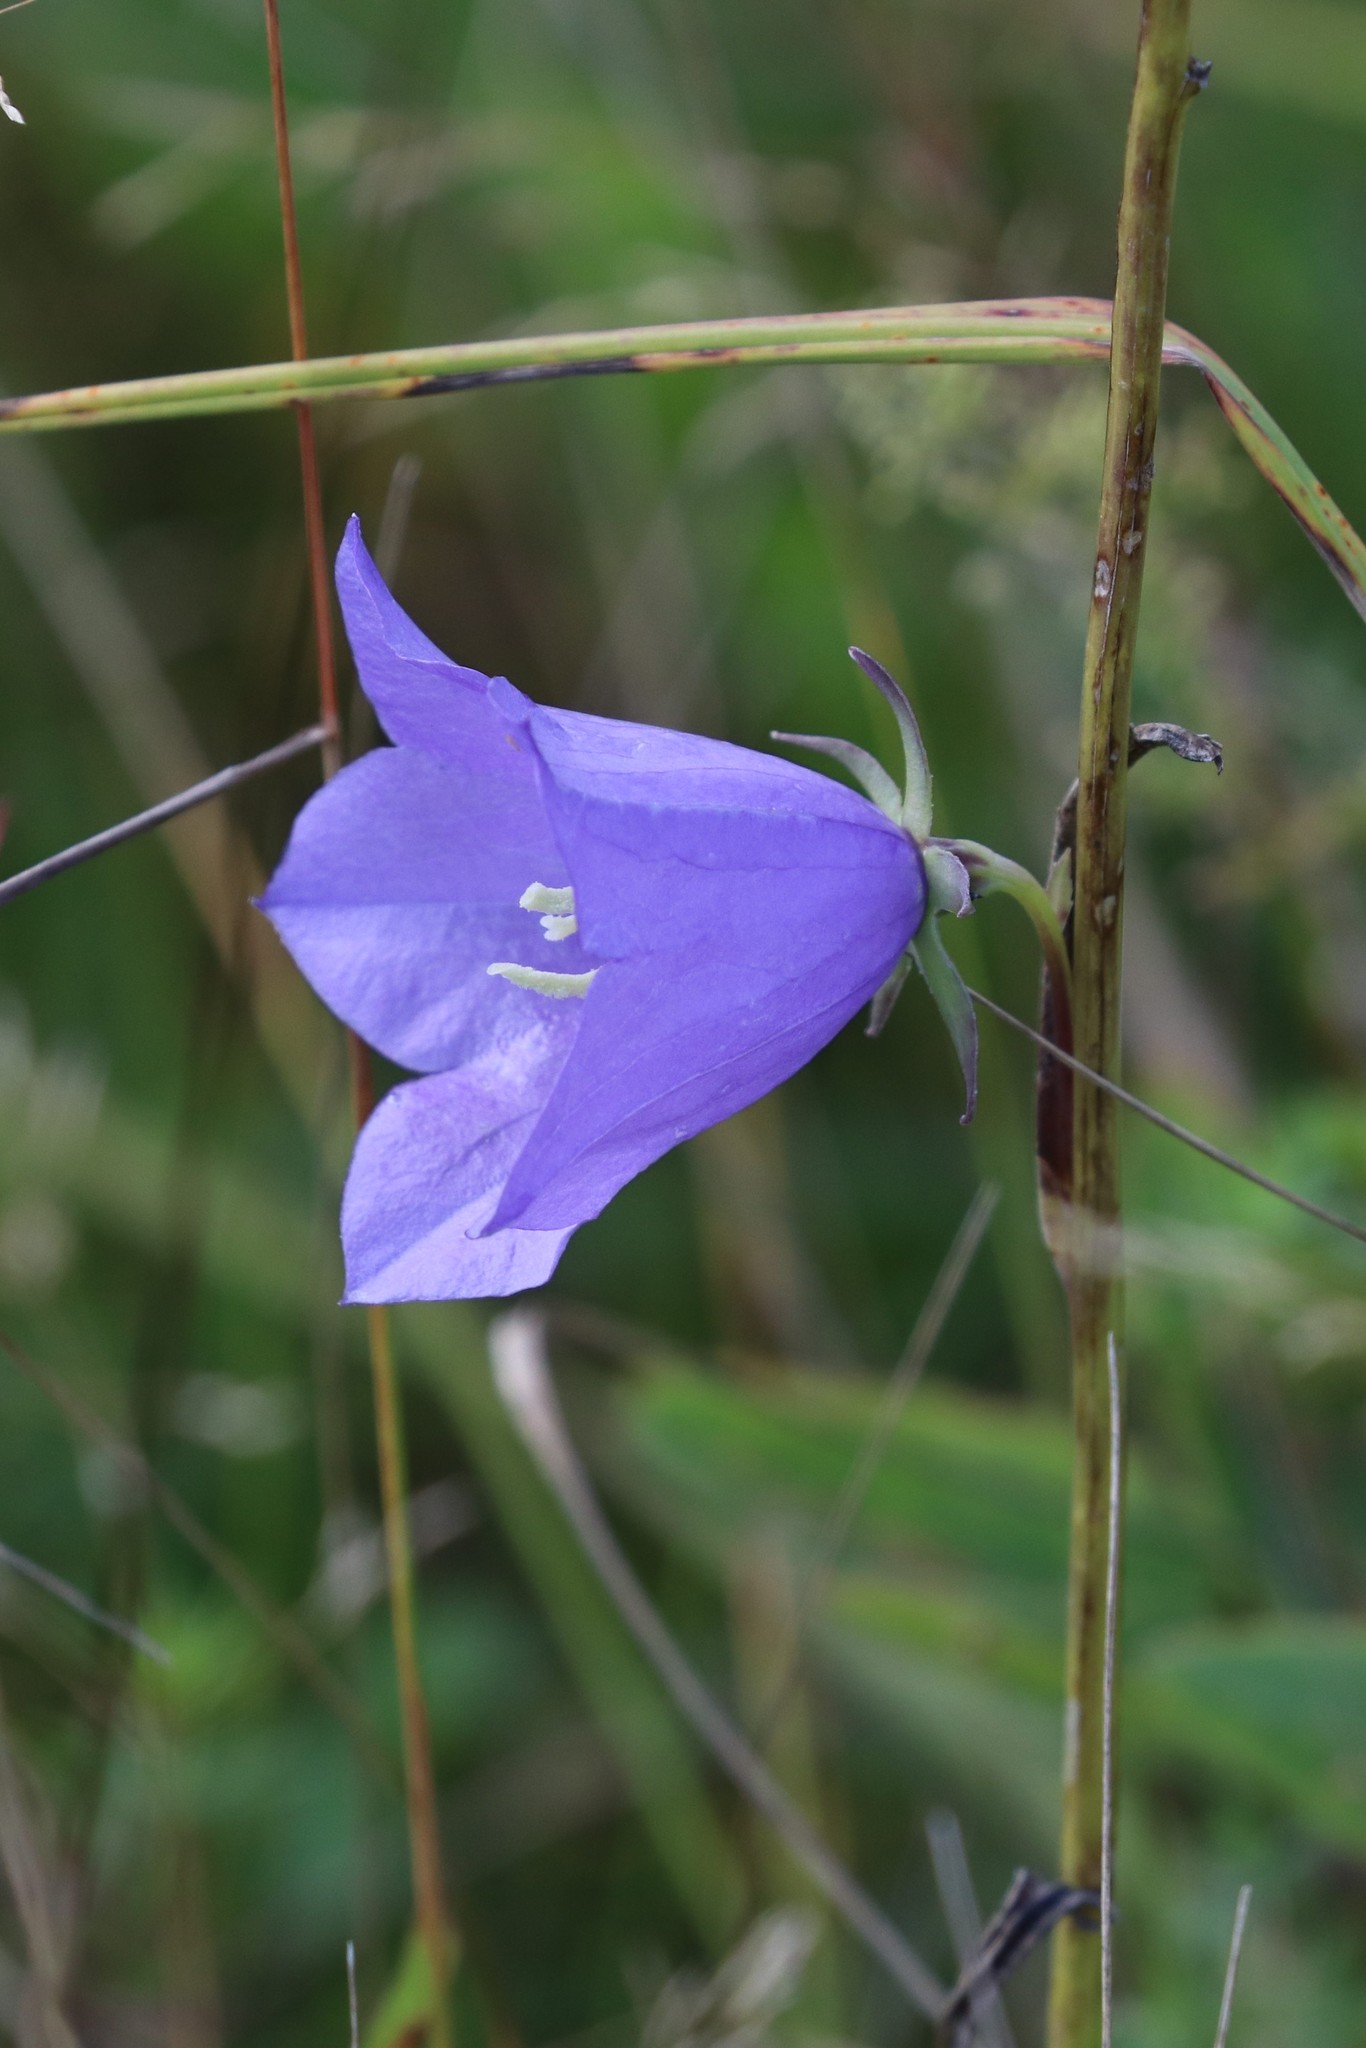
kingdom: Plantae
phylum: Tracheophyta
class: Magnoliopsida
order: Asterales
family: Campanulaceae
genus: Campanula
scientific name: Campanula persicifolia
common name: Peach-leaved bellflower
